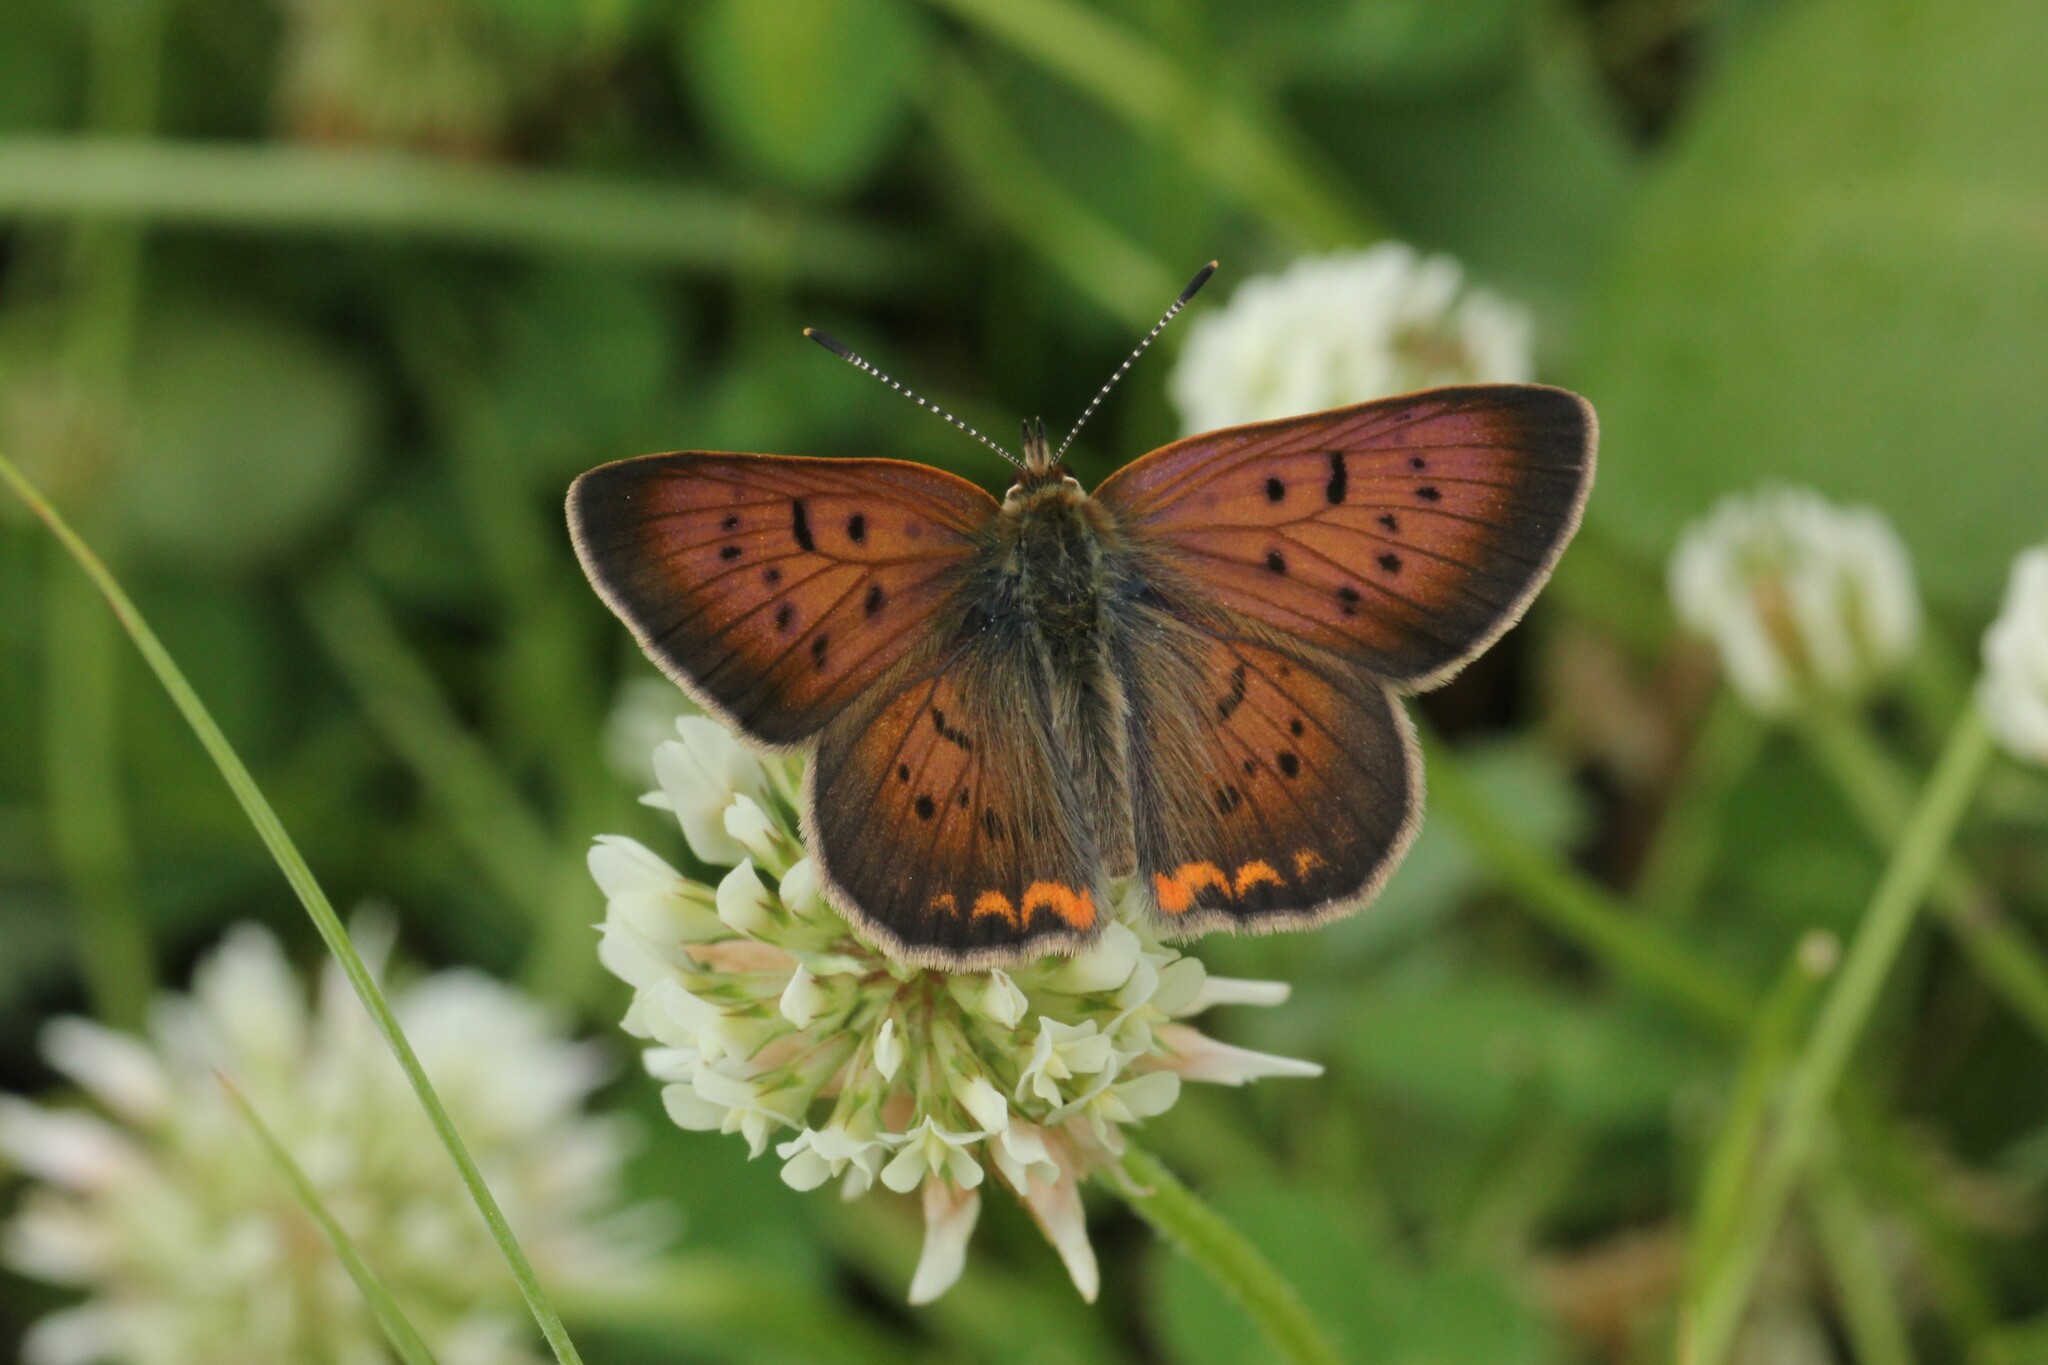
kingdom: Animalia
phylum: Arthropoda
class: Insecta
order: Lepidoptera
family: Lycaenidae
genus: Tharsalea
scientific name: Tharsalea helloides
